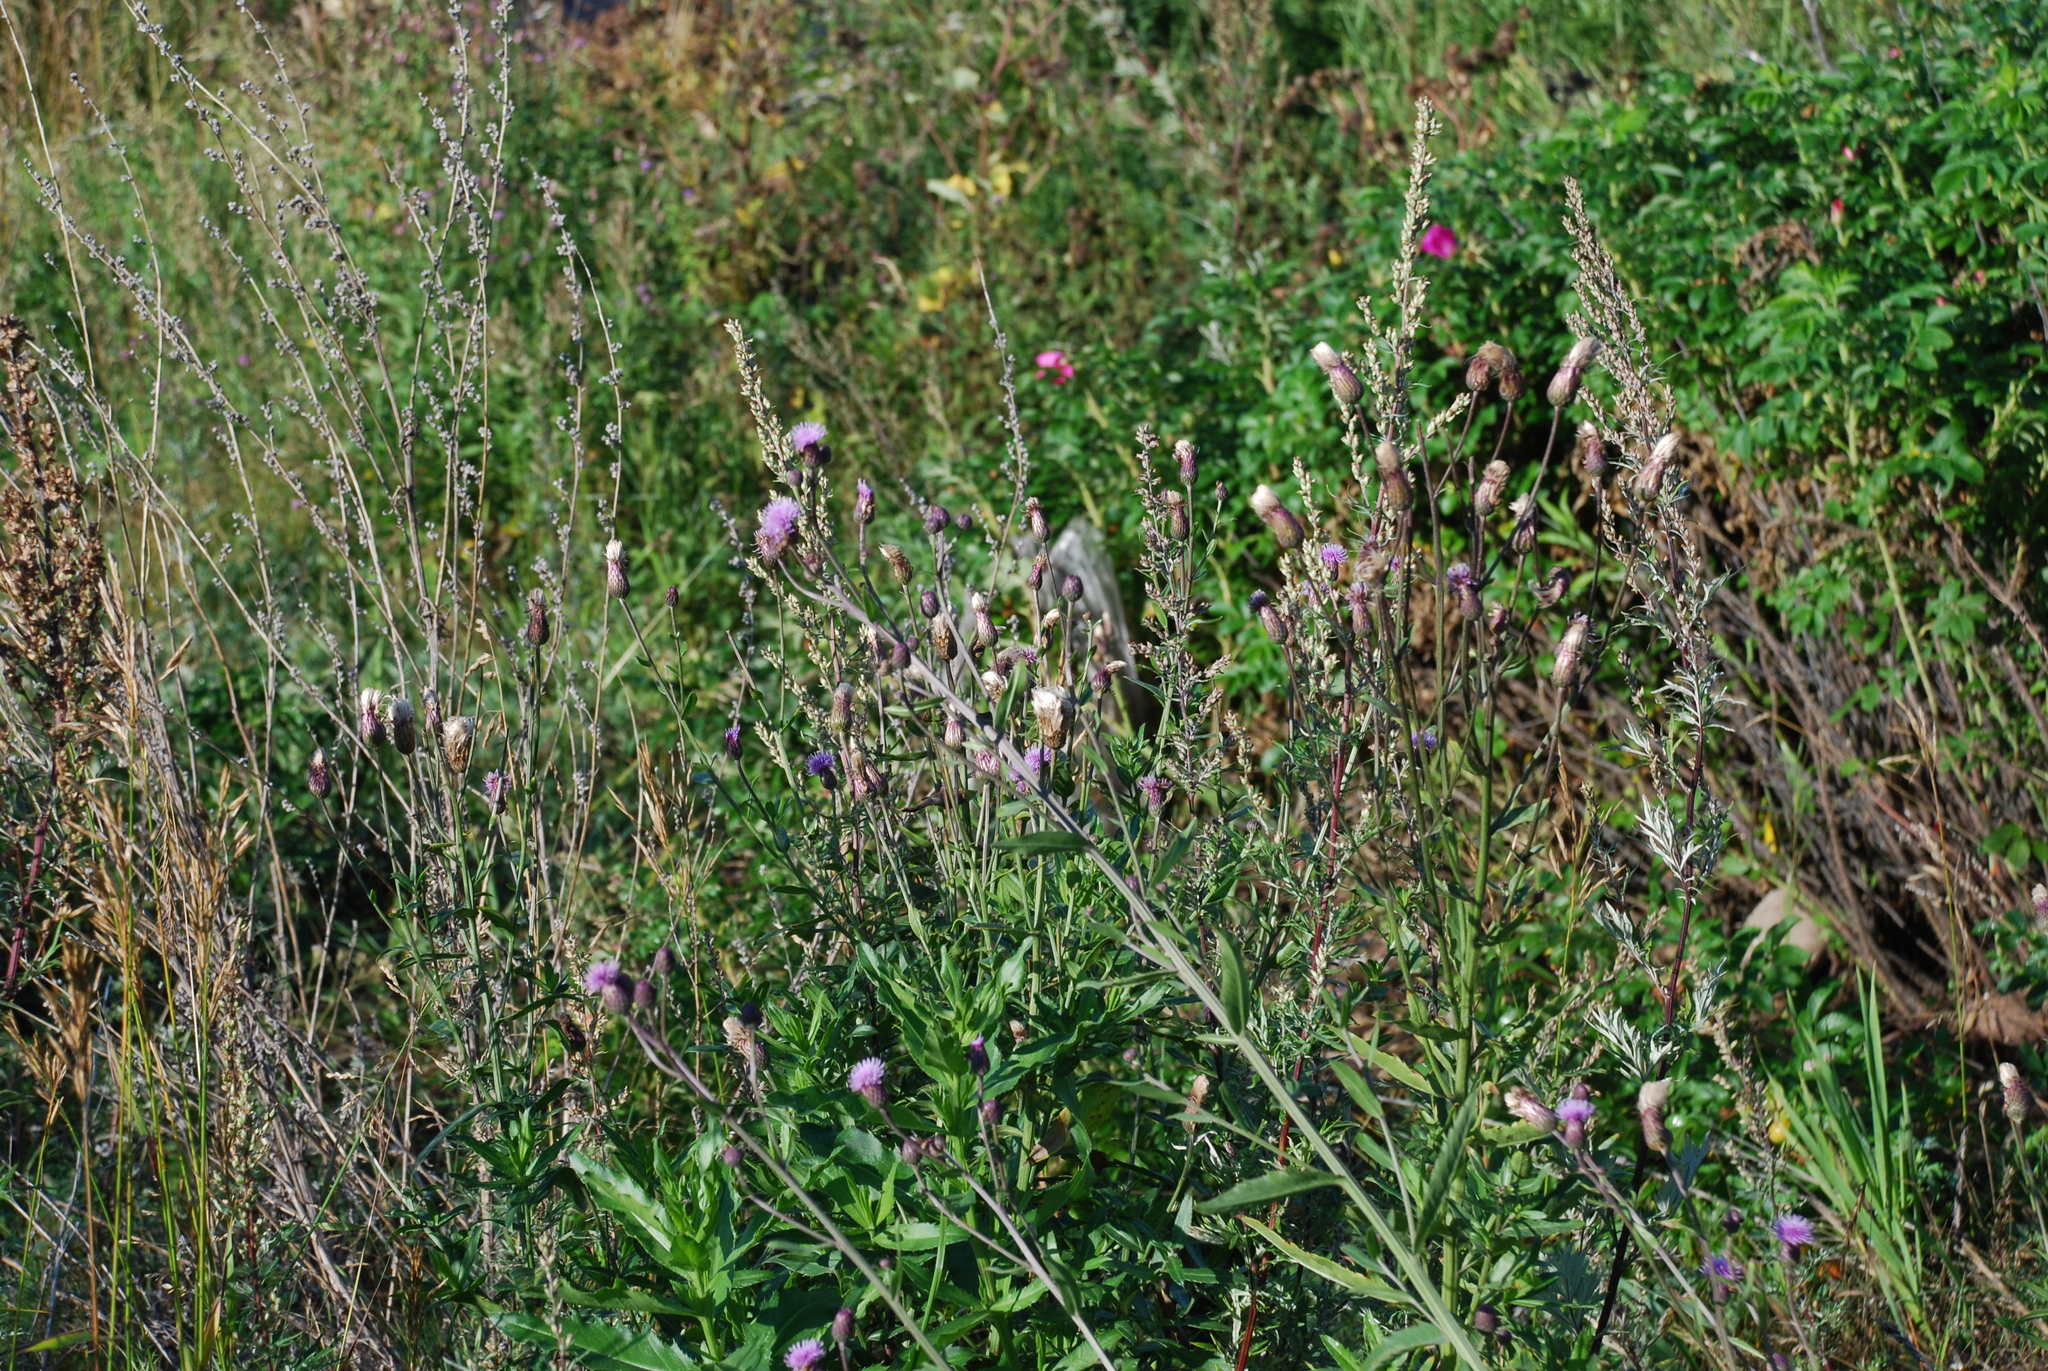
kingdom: Plantae
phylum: Tracheophyta
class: Magnoliopsida
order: Asterales
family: Asteraceae
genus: Cirsium
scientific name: Cirsium arvense
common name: Creeping thistle
